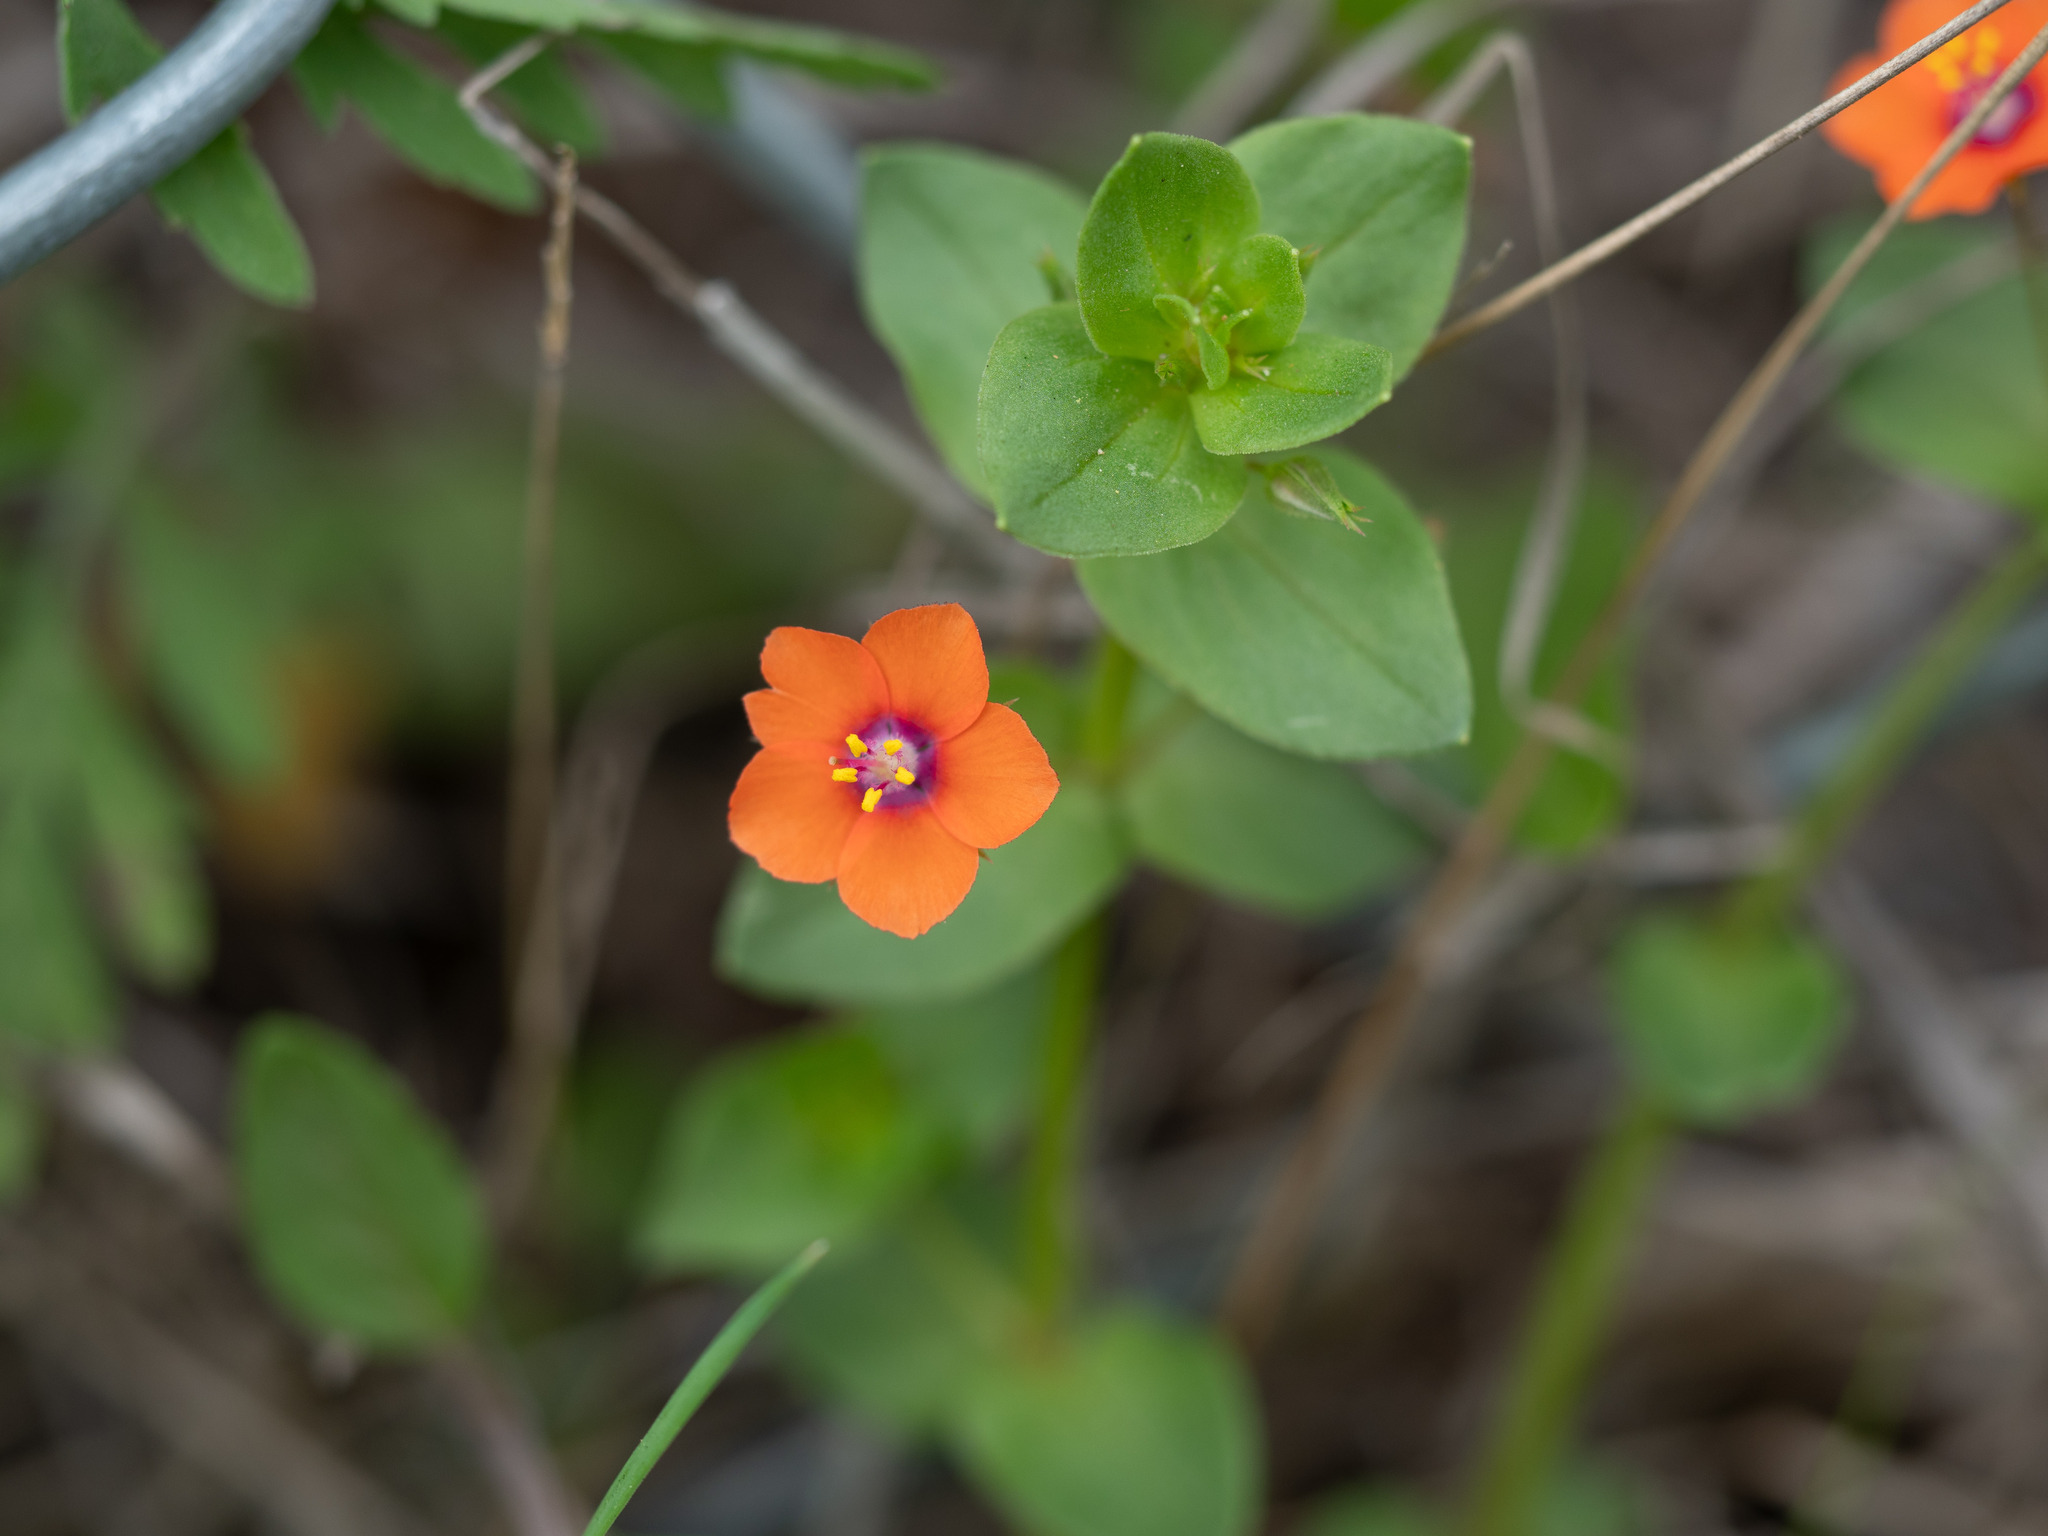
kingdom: Plantae
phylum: Tracheophyta
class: Magnoliopsida
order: Ericales
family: Primulaceae
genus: Lysimachia
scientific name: Lysimachia arvensis
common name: Scarlet pimpernel
